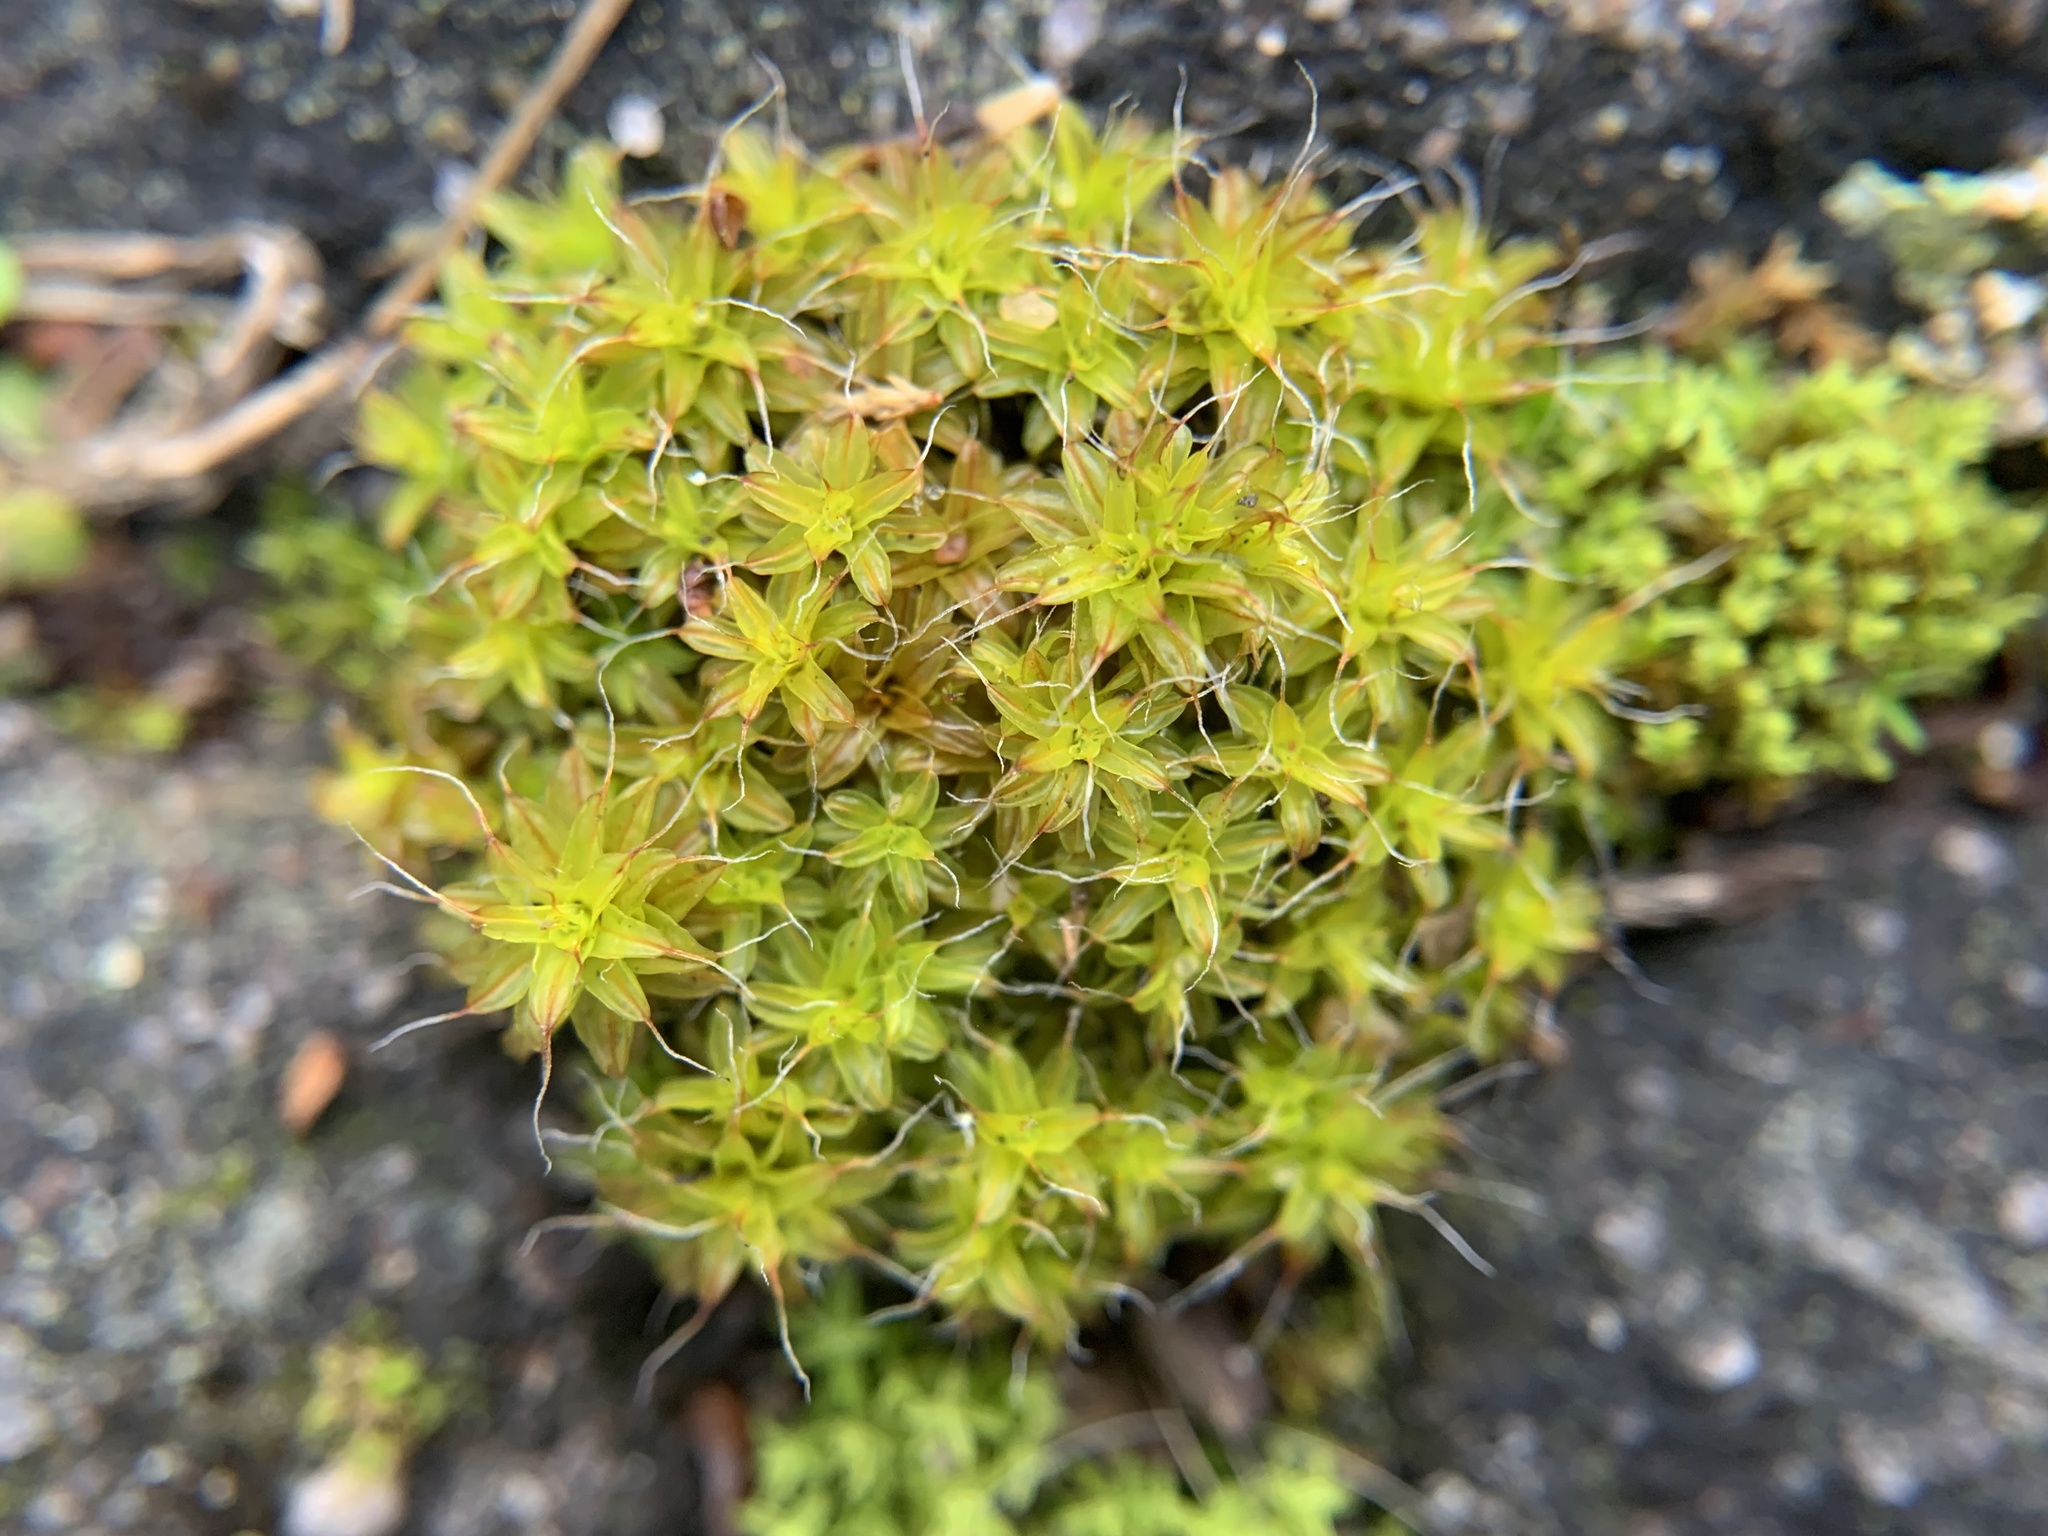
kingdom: Plantae
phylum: Bryophyta
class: Bryopsida
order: Pottiales
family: Pottiaceae
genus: Syntrichia
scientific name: Syntrichia ruralis
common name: Sidewalk screw moss
